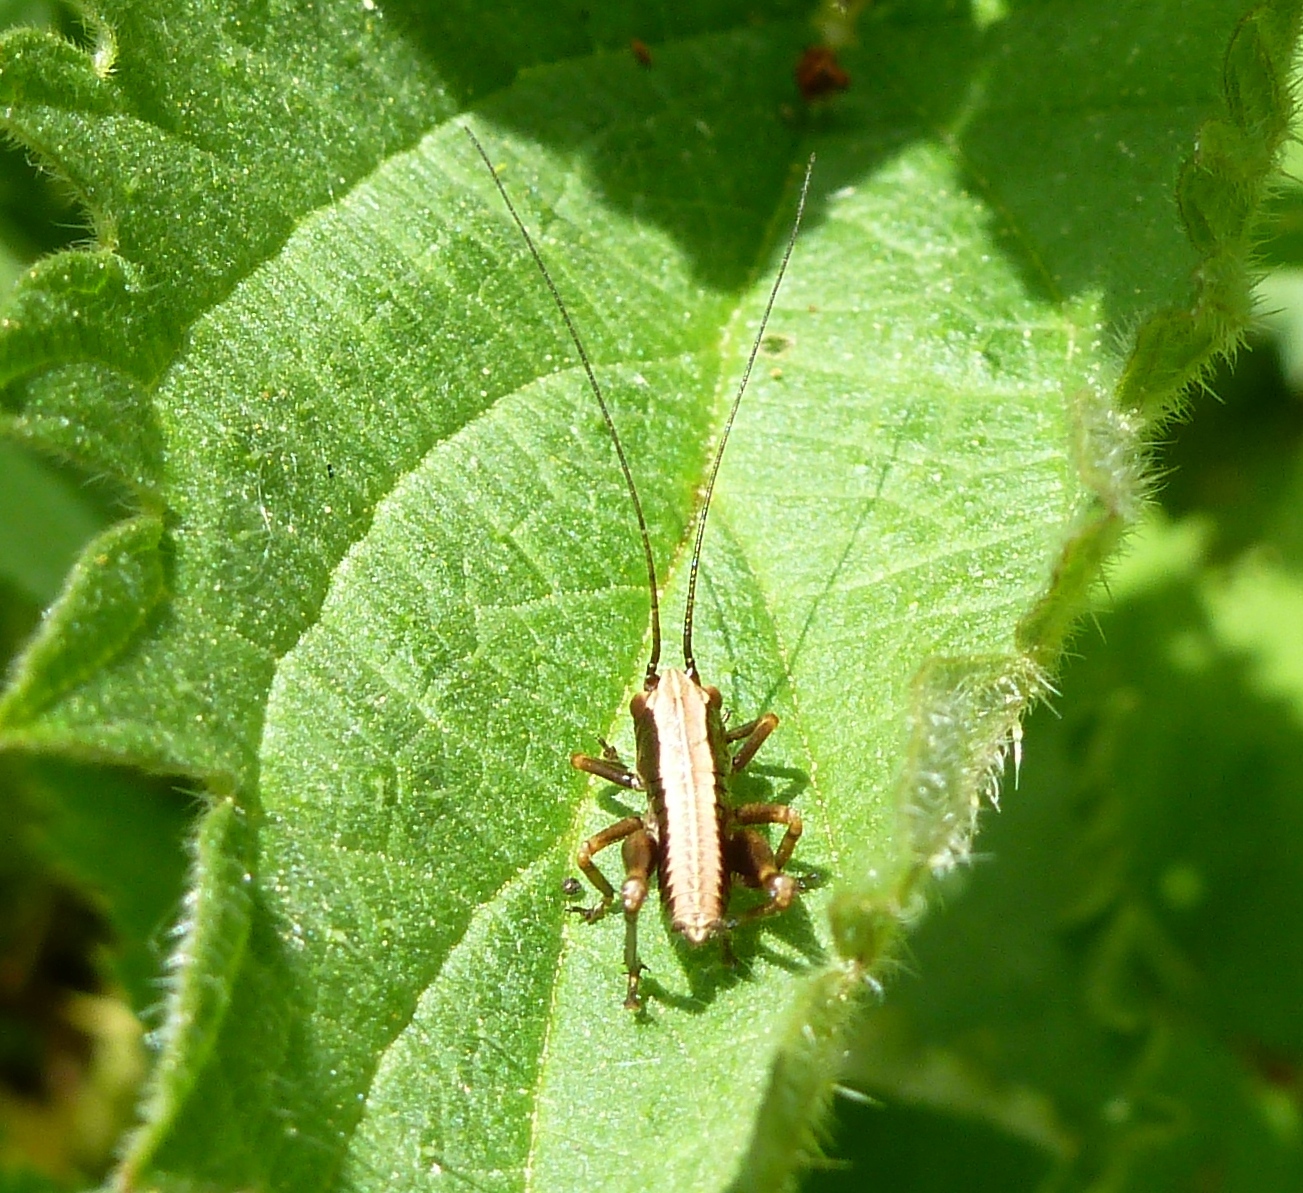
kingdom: Animalia
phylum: Arthropoda
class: Insecta
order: Orthoptera
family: Tettigoniidae
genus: Pholidoptera
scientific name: Pholidoptera griseoaptera
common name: Dark bush-cricket
